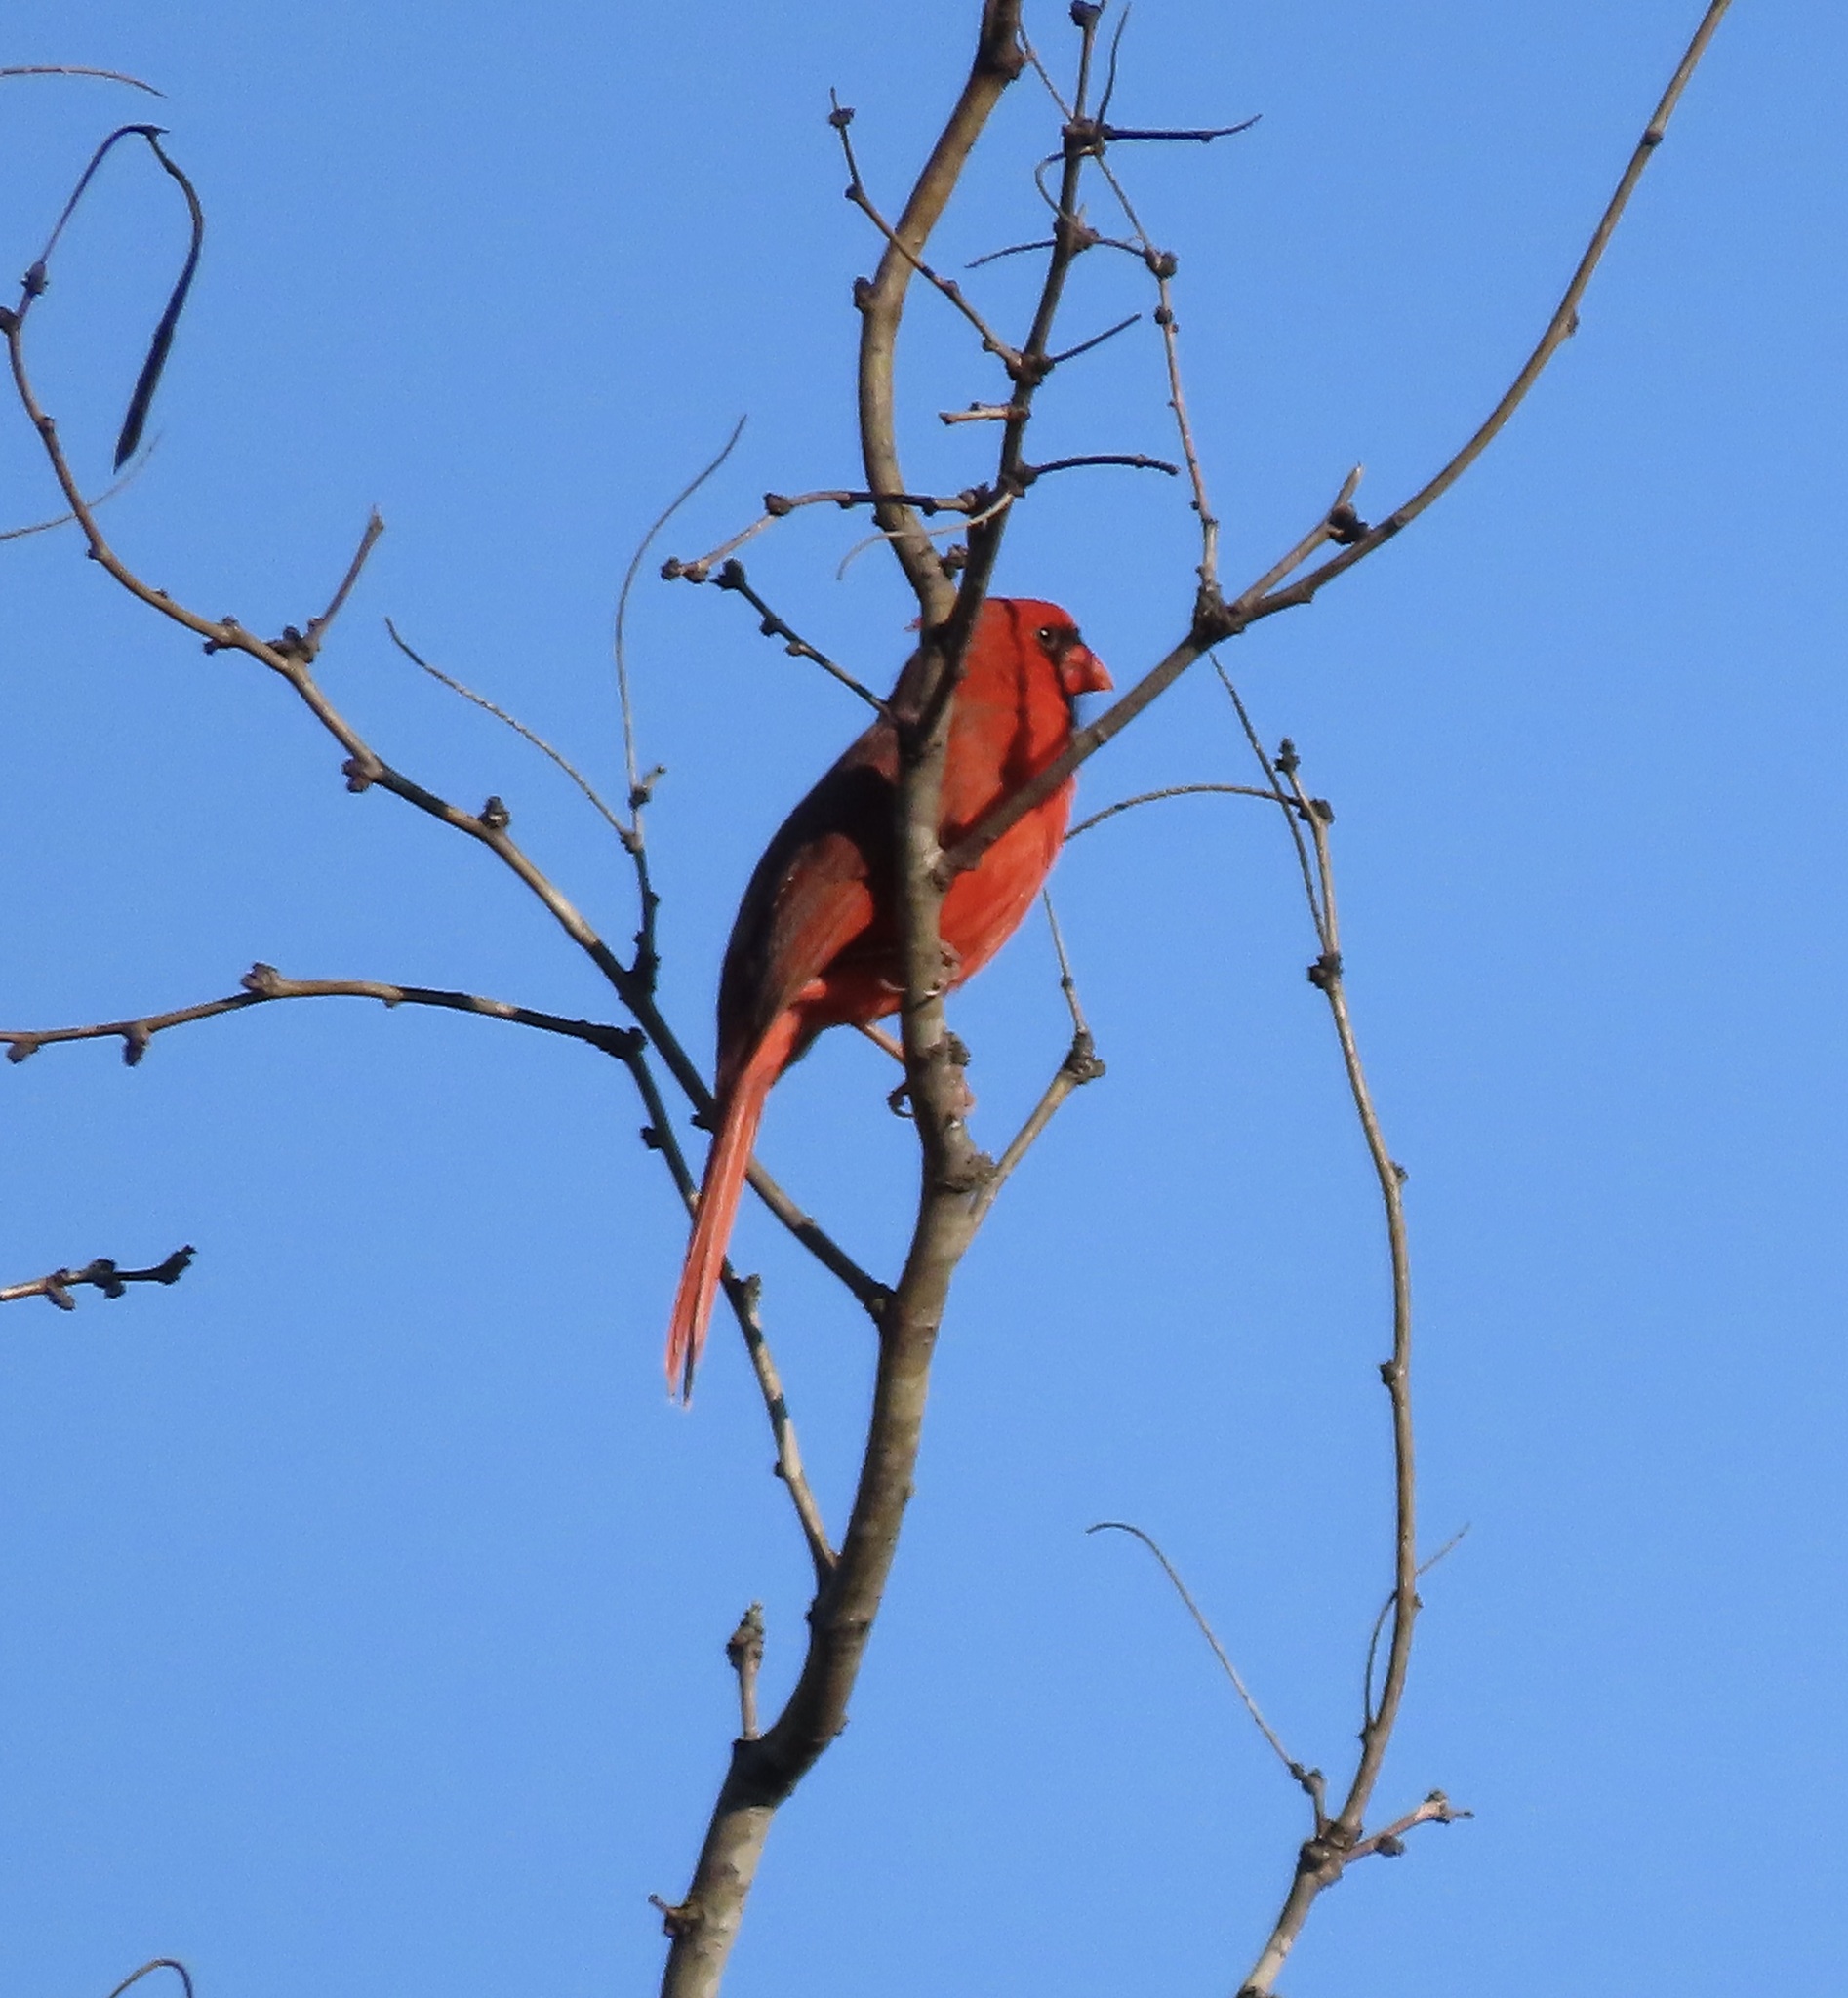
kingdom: Animalia
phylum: Chordata
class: Aves
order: Passeriformes
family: Cardinalidae
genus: Cardinalis
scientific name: Cardinalis cardinalis
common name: Northern cardinal
